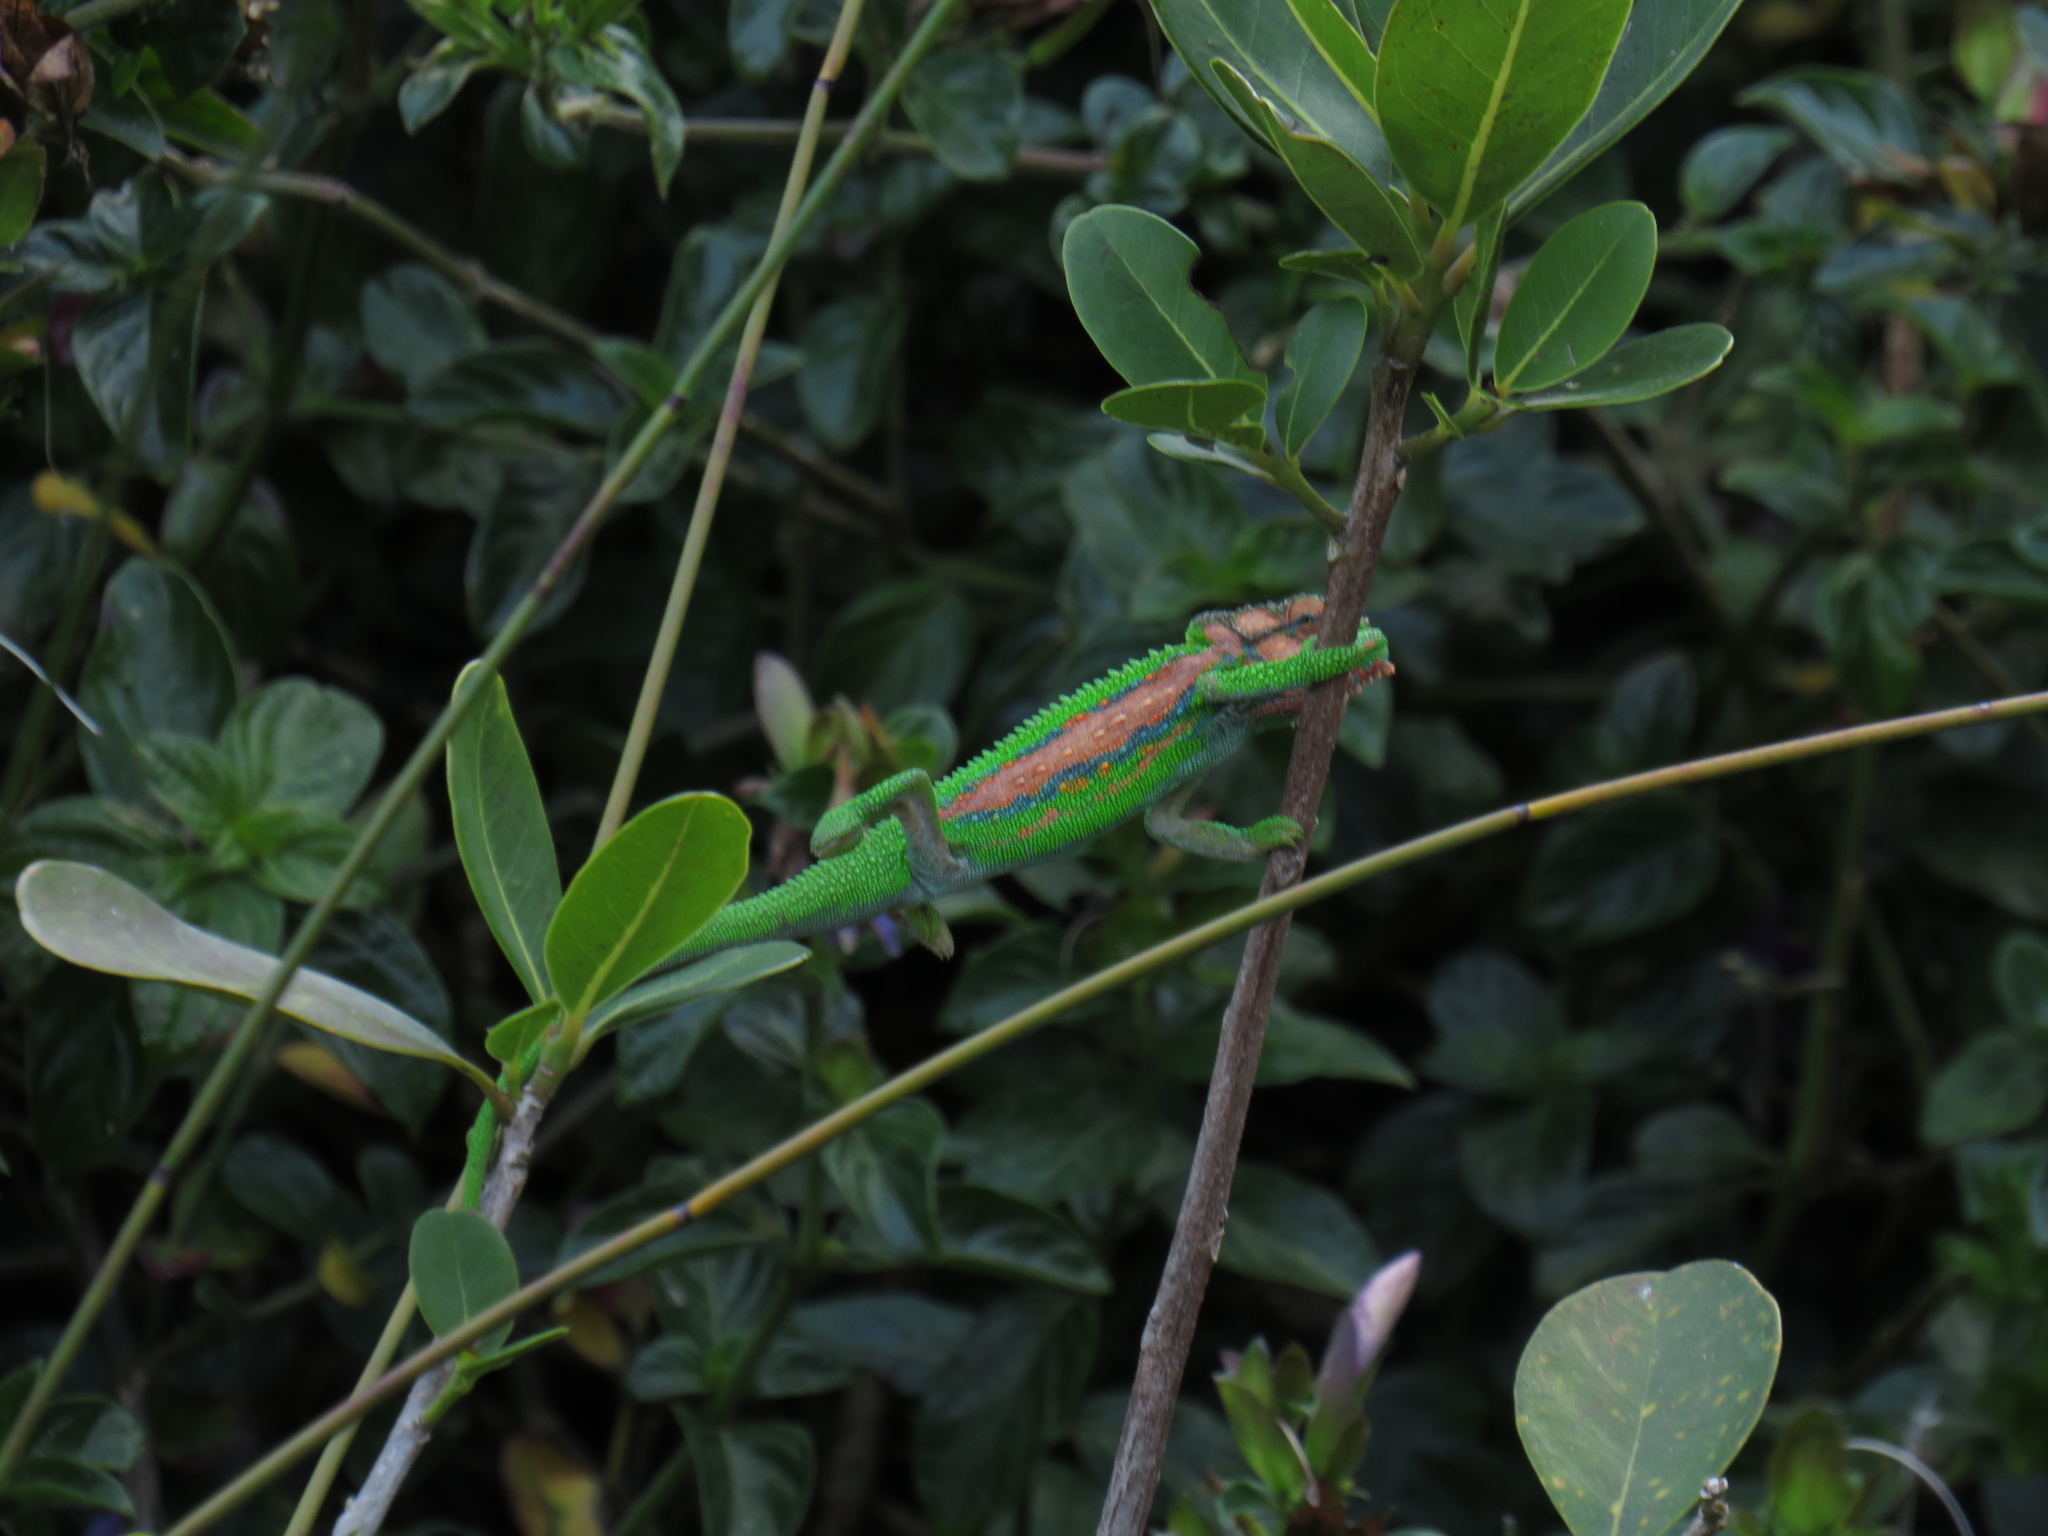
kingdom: Animalia
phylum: Chordata
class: Squamata
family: Chamaeleonidae
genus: Bradypodion
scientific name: Bradypodion pumilum
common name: Cape dwarf chameleon
